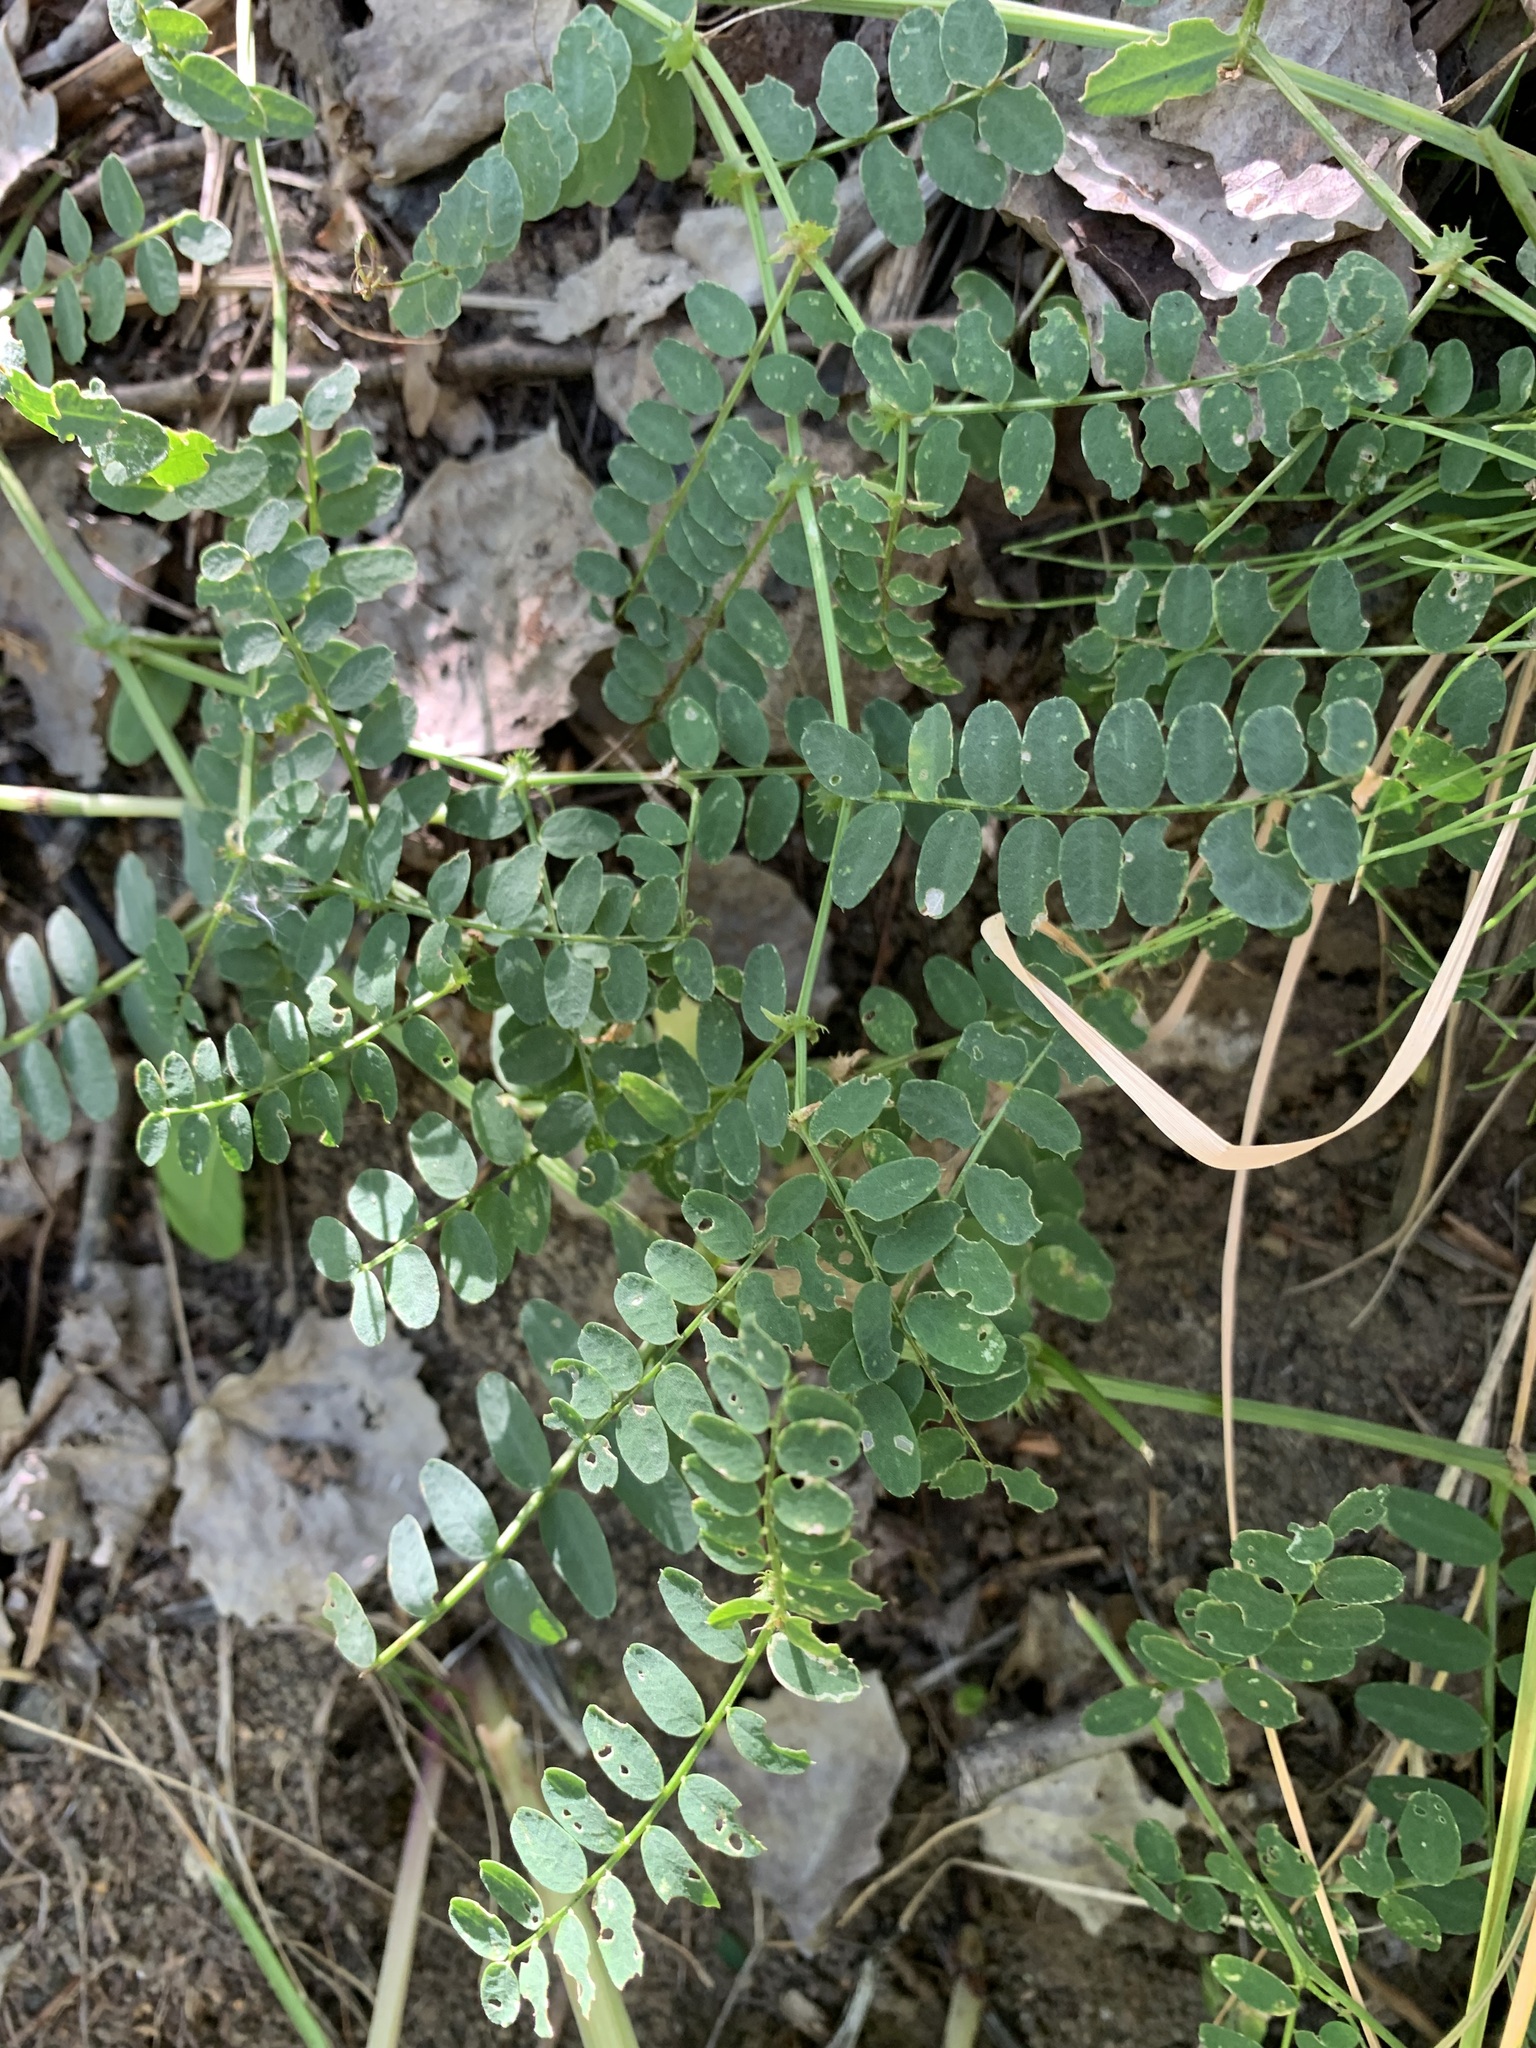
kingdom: Plantae
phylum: Tracheophyta
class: Magnoliopsida
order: Fabales
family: Fabaceae
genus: Vicia
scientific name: Vicia sylvatica
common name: Wood vetch
